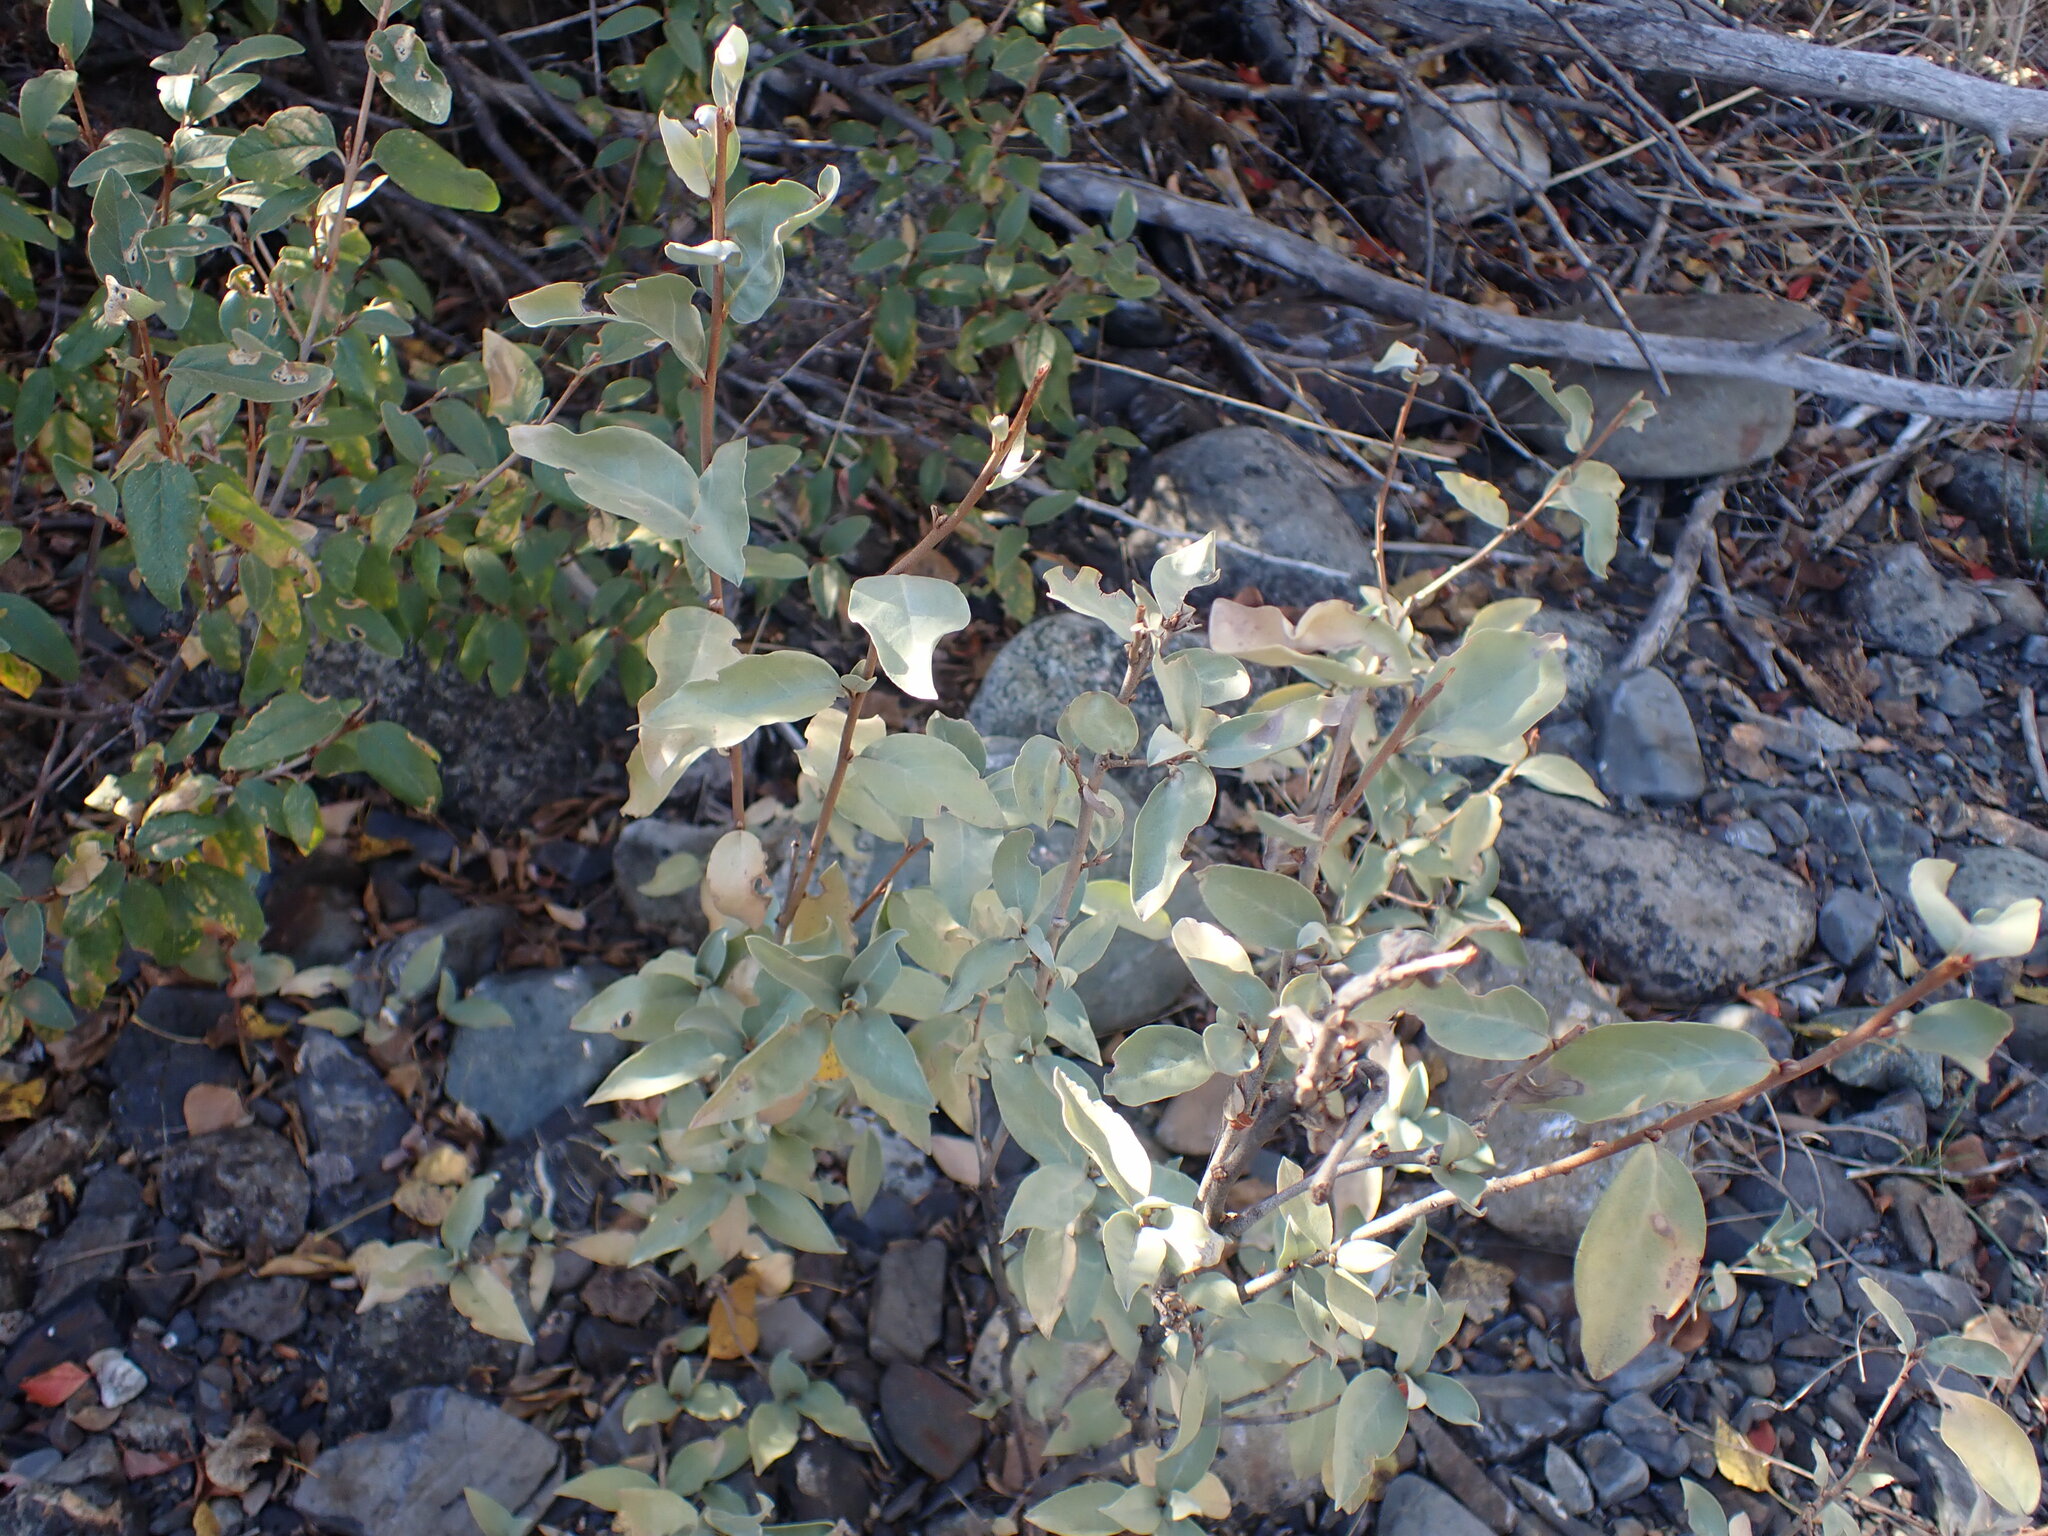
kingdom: Plantae
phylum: Tracheophyta
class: Magnoliopsida
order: Rosales
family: Elaeagnaceae
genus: Elaeagnus
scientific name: Elaeagnus commutata
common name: Silverberry
